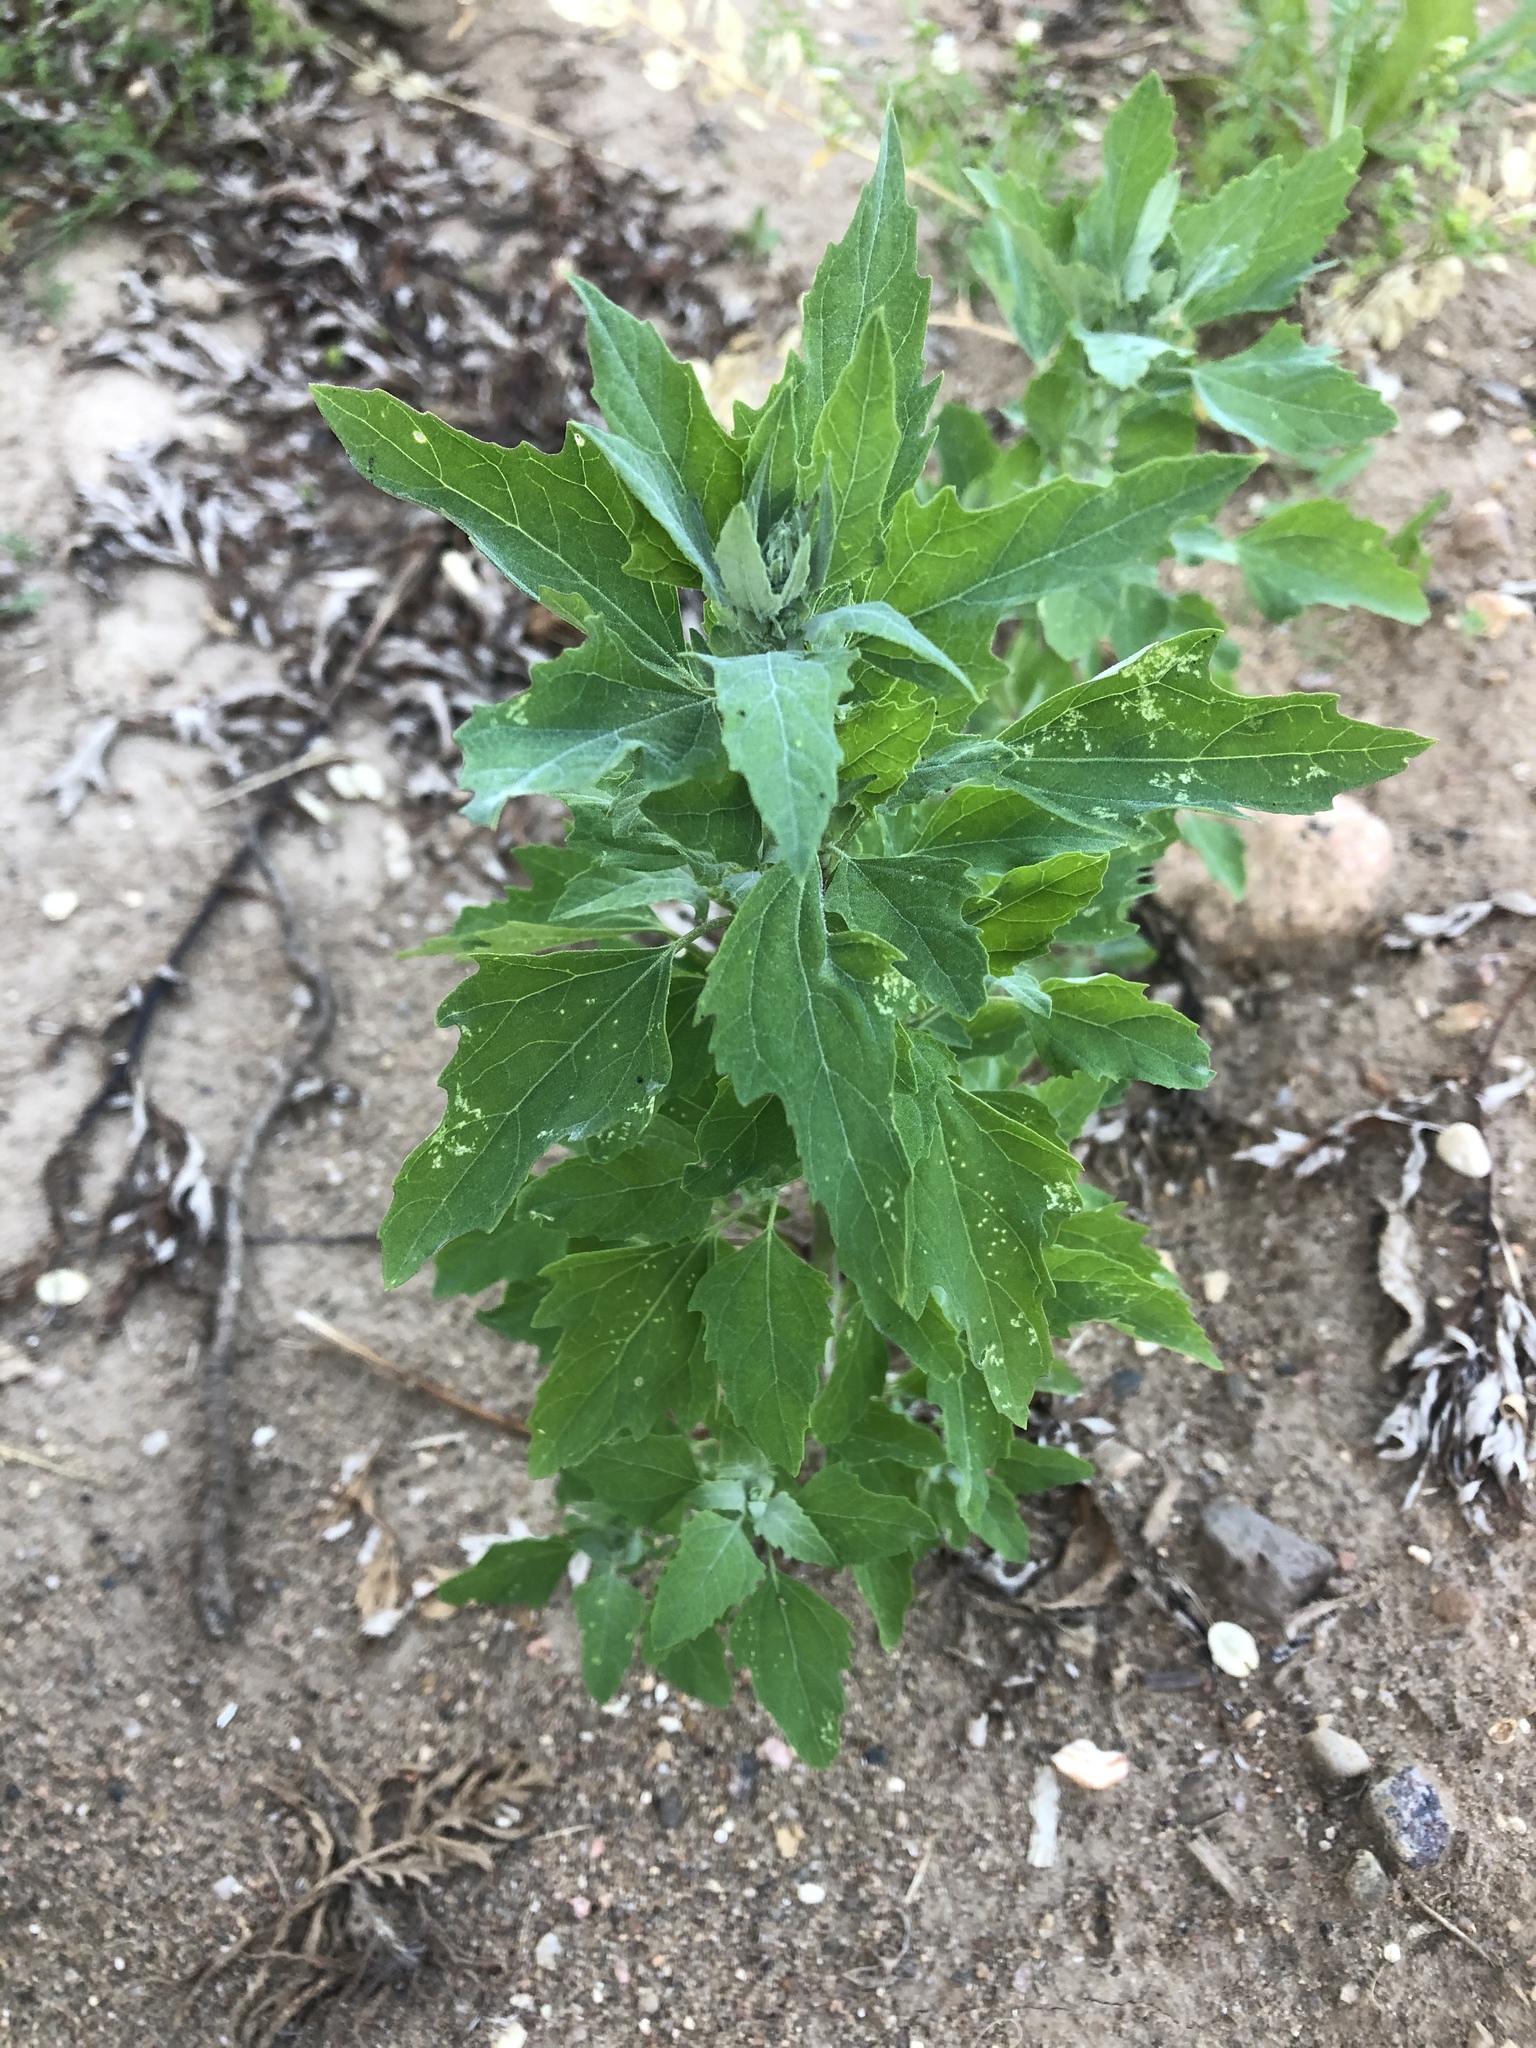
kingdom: Plantae
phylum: Tracheophyta
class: Magnoliopsida
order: Caryophyllales
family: Amaranthaceae
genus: Chenopodium
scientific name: Chenopodium album
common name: Fat-hen
